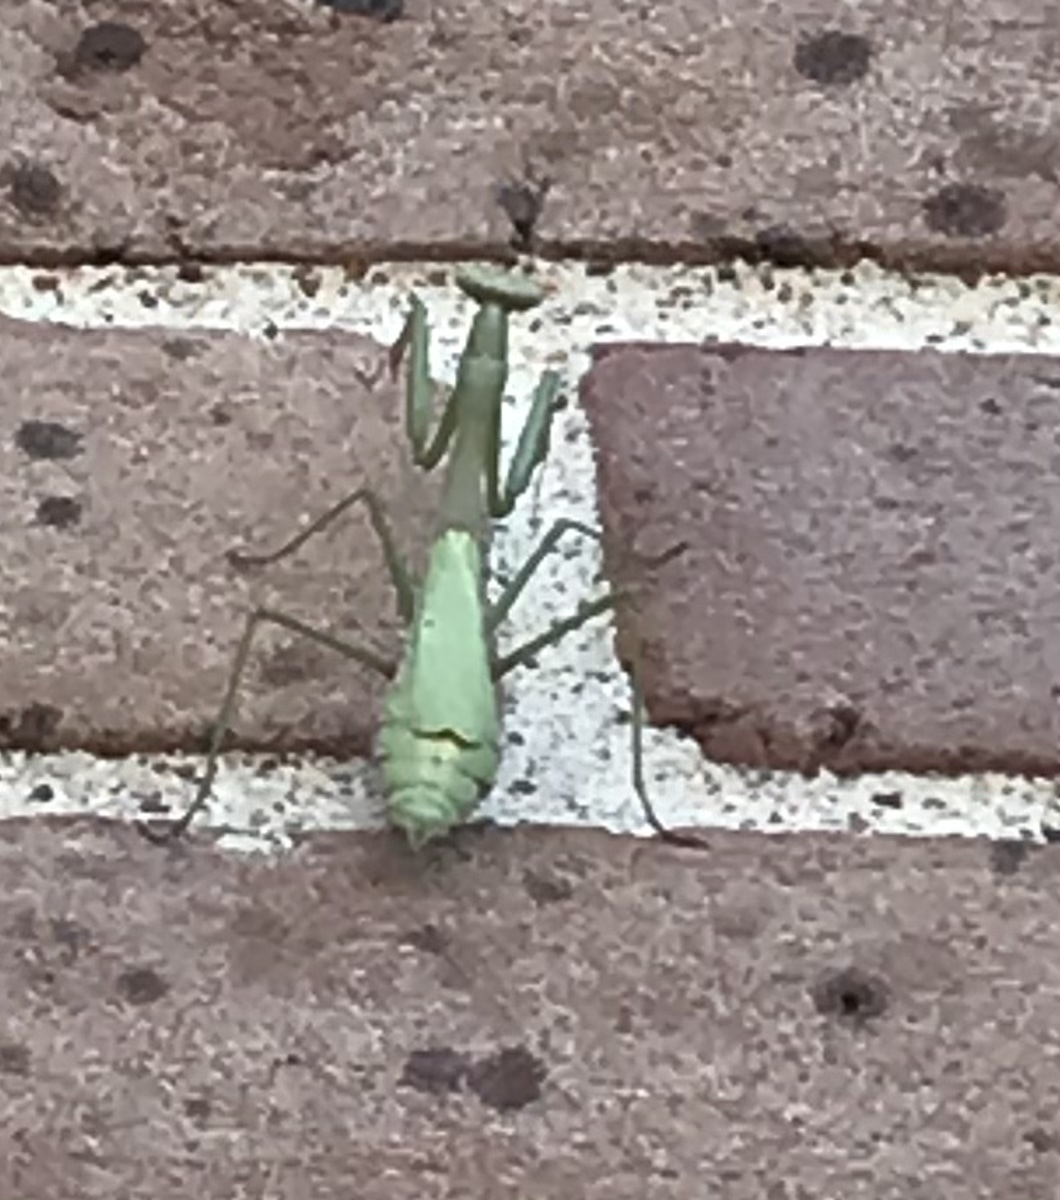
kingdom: Animalia
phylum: Arthropoda
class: Insecta
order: Mantodea
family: Mantidae
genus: Stagmomantis
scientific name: Stagmomantis carolina
